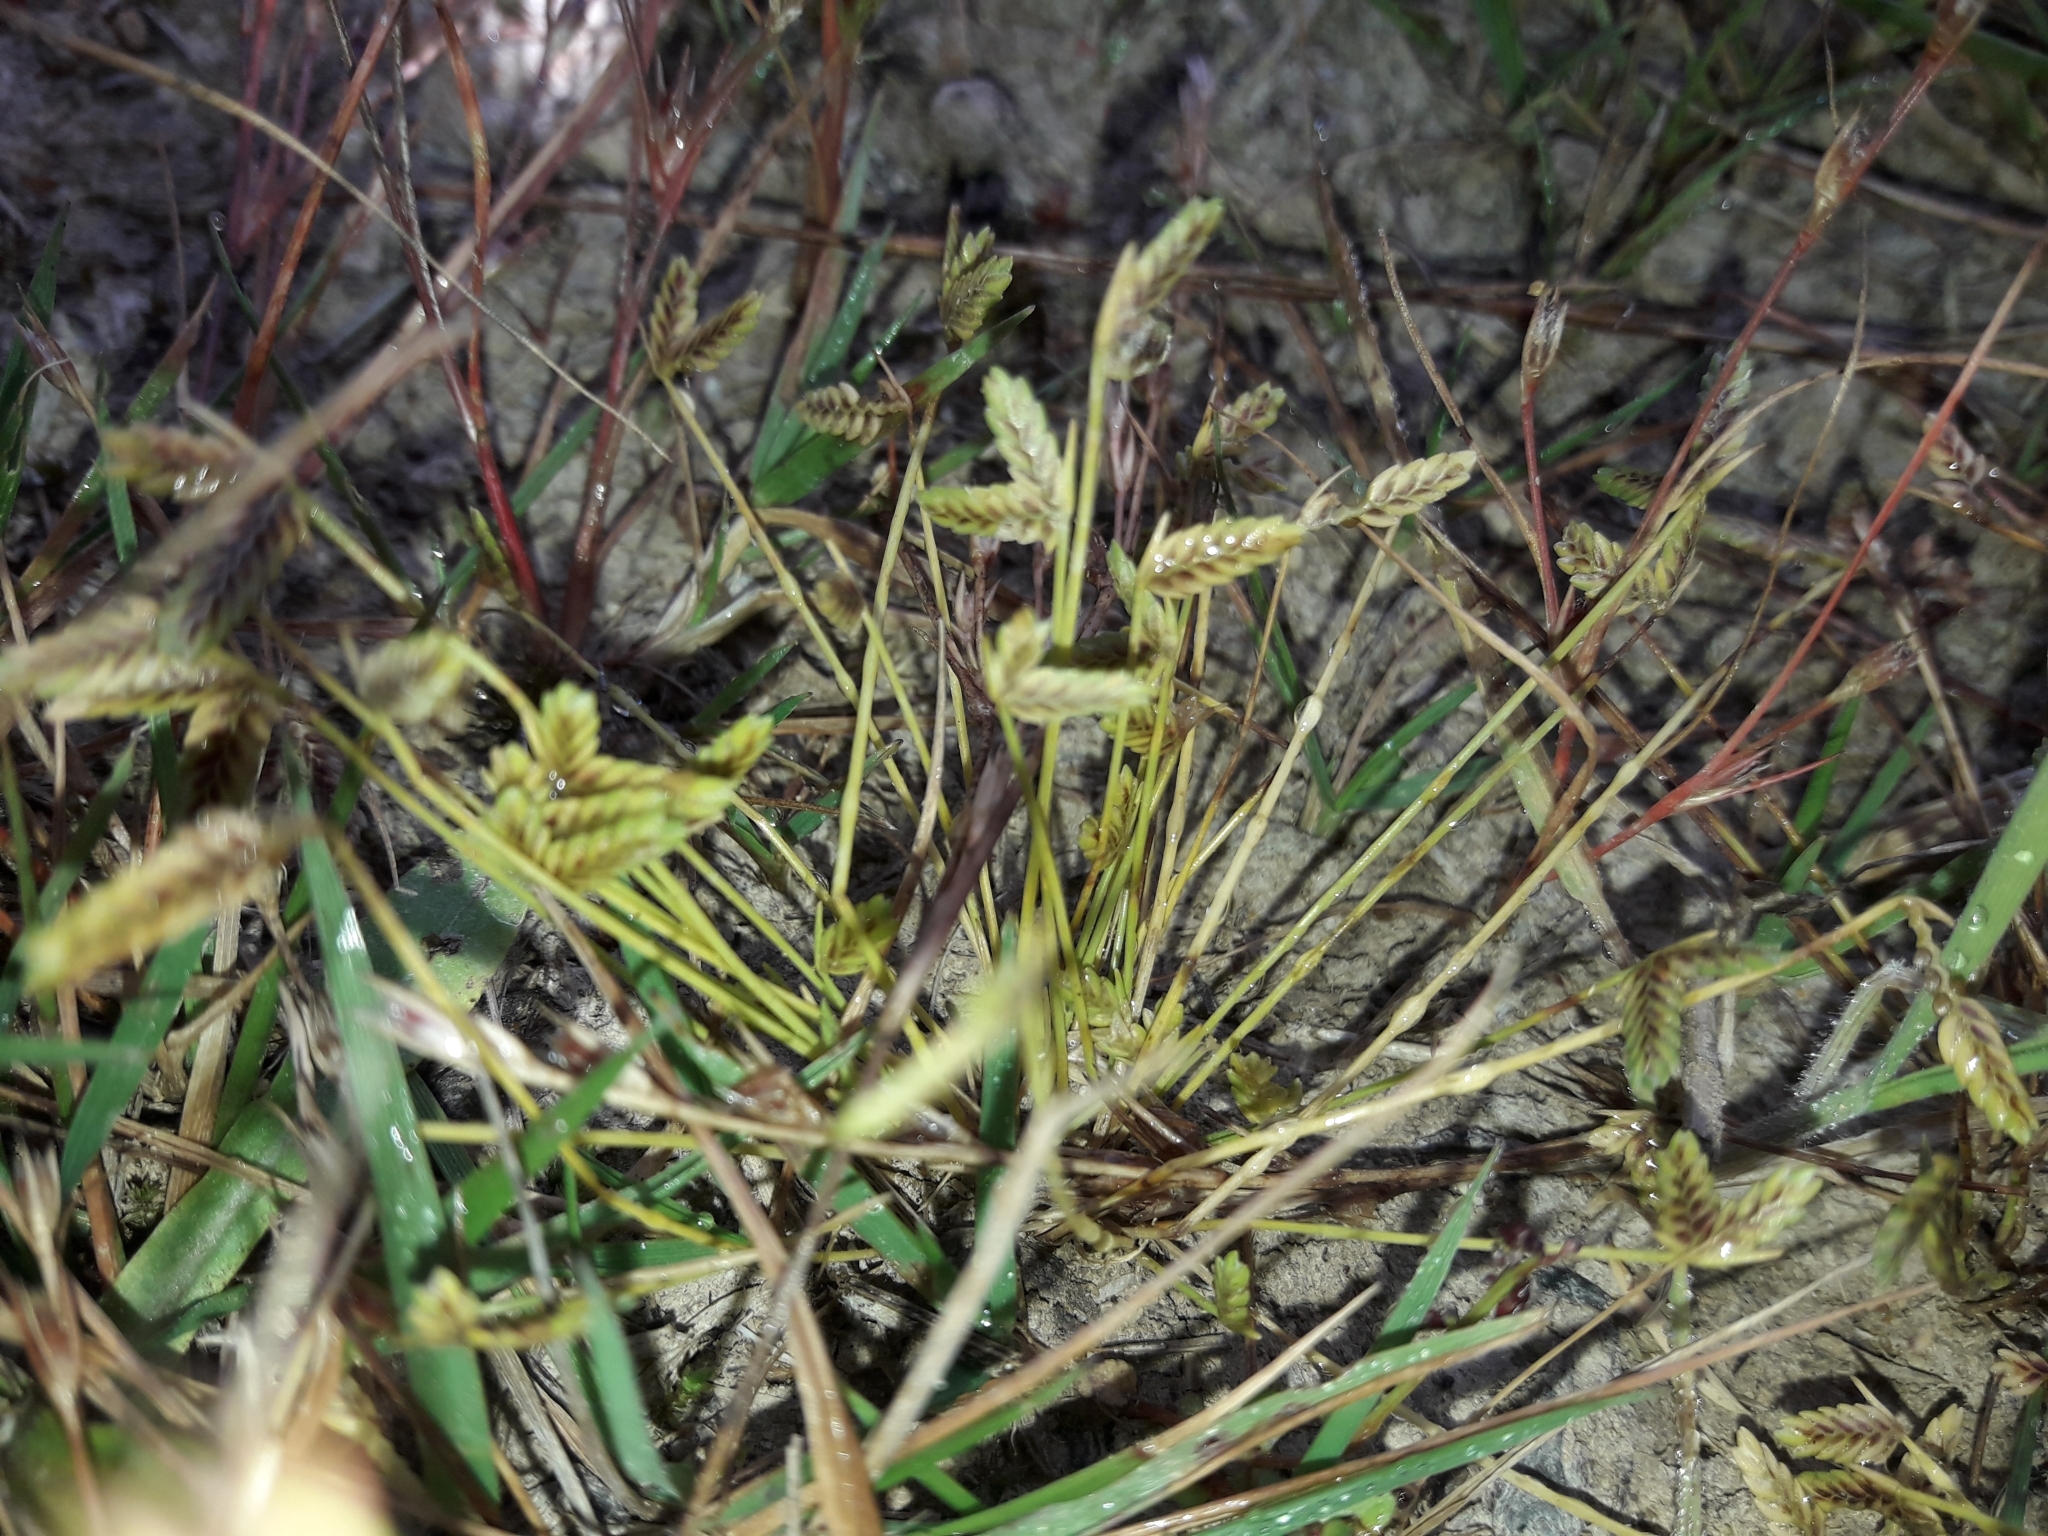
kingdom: Plantae
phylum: Tracheophyta
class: Liliopsida
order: Poales
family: Cyperaceae
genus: Isolepis
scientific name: Isolepis levynsiana
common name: Sedge
